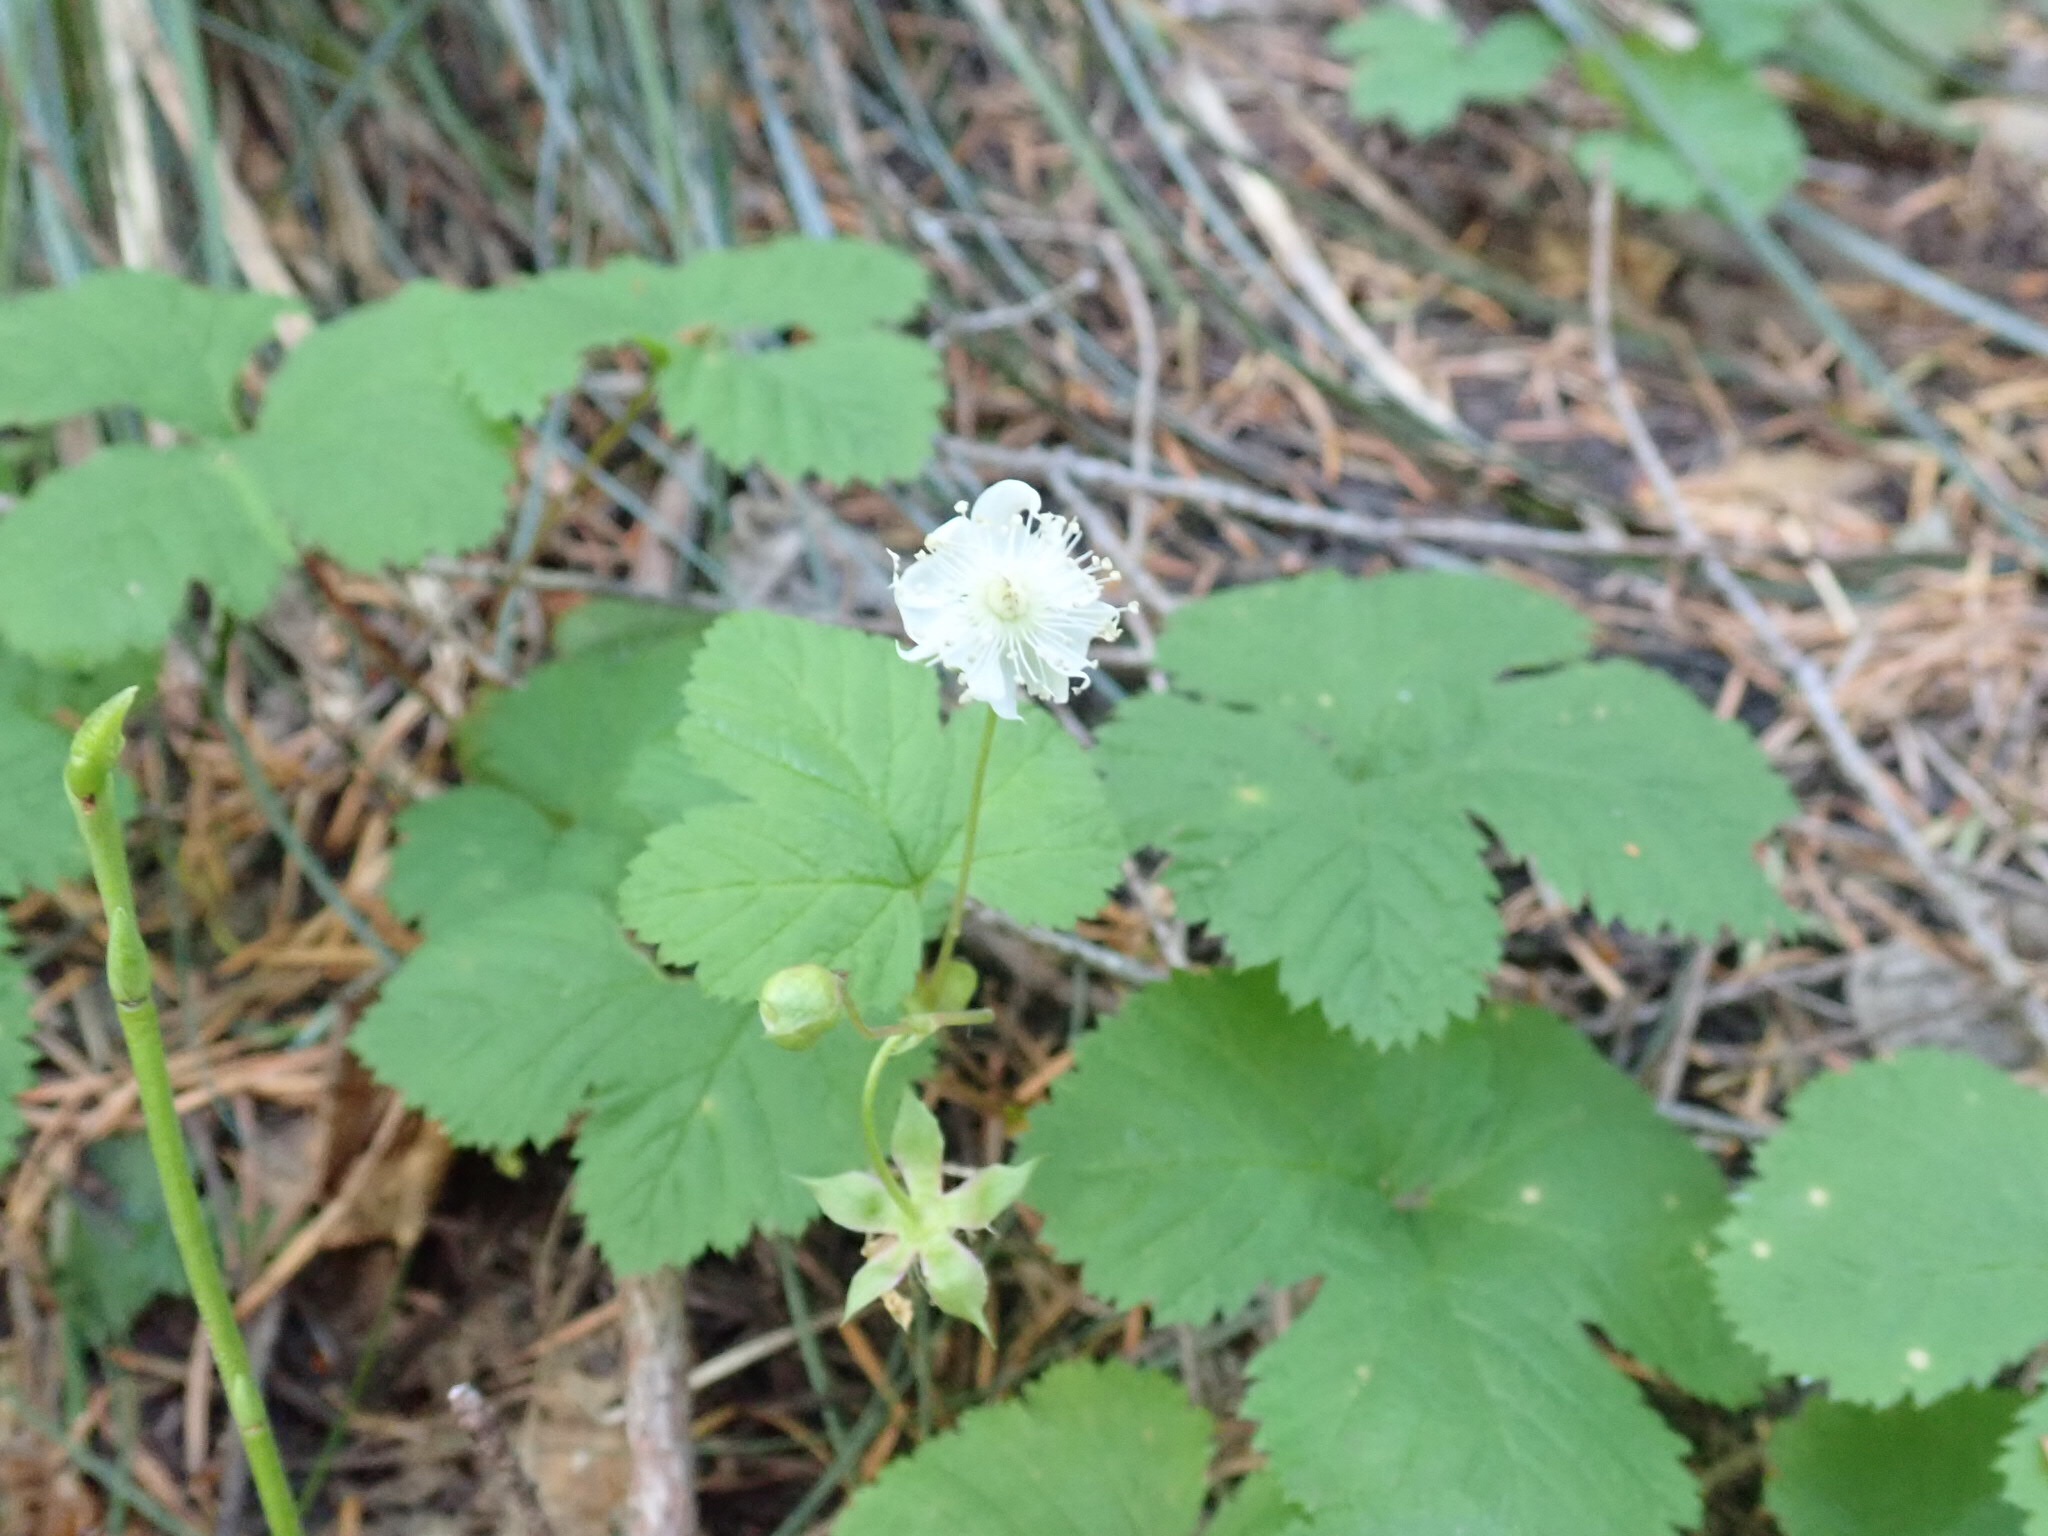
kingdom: Plantae
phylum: Tracheophyta
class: Magnoliopsida
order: Rosales
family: Rosaceae
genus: Rubus
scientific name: Rubus lasiococcus
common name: Dwarf bramble
